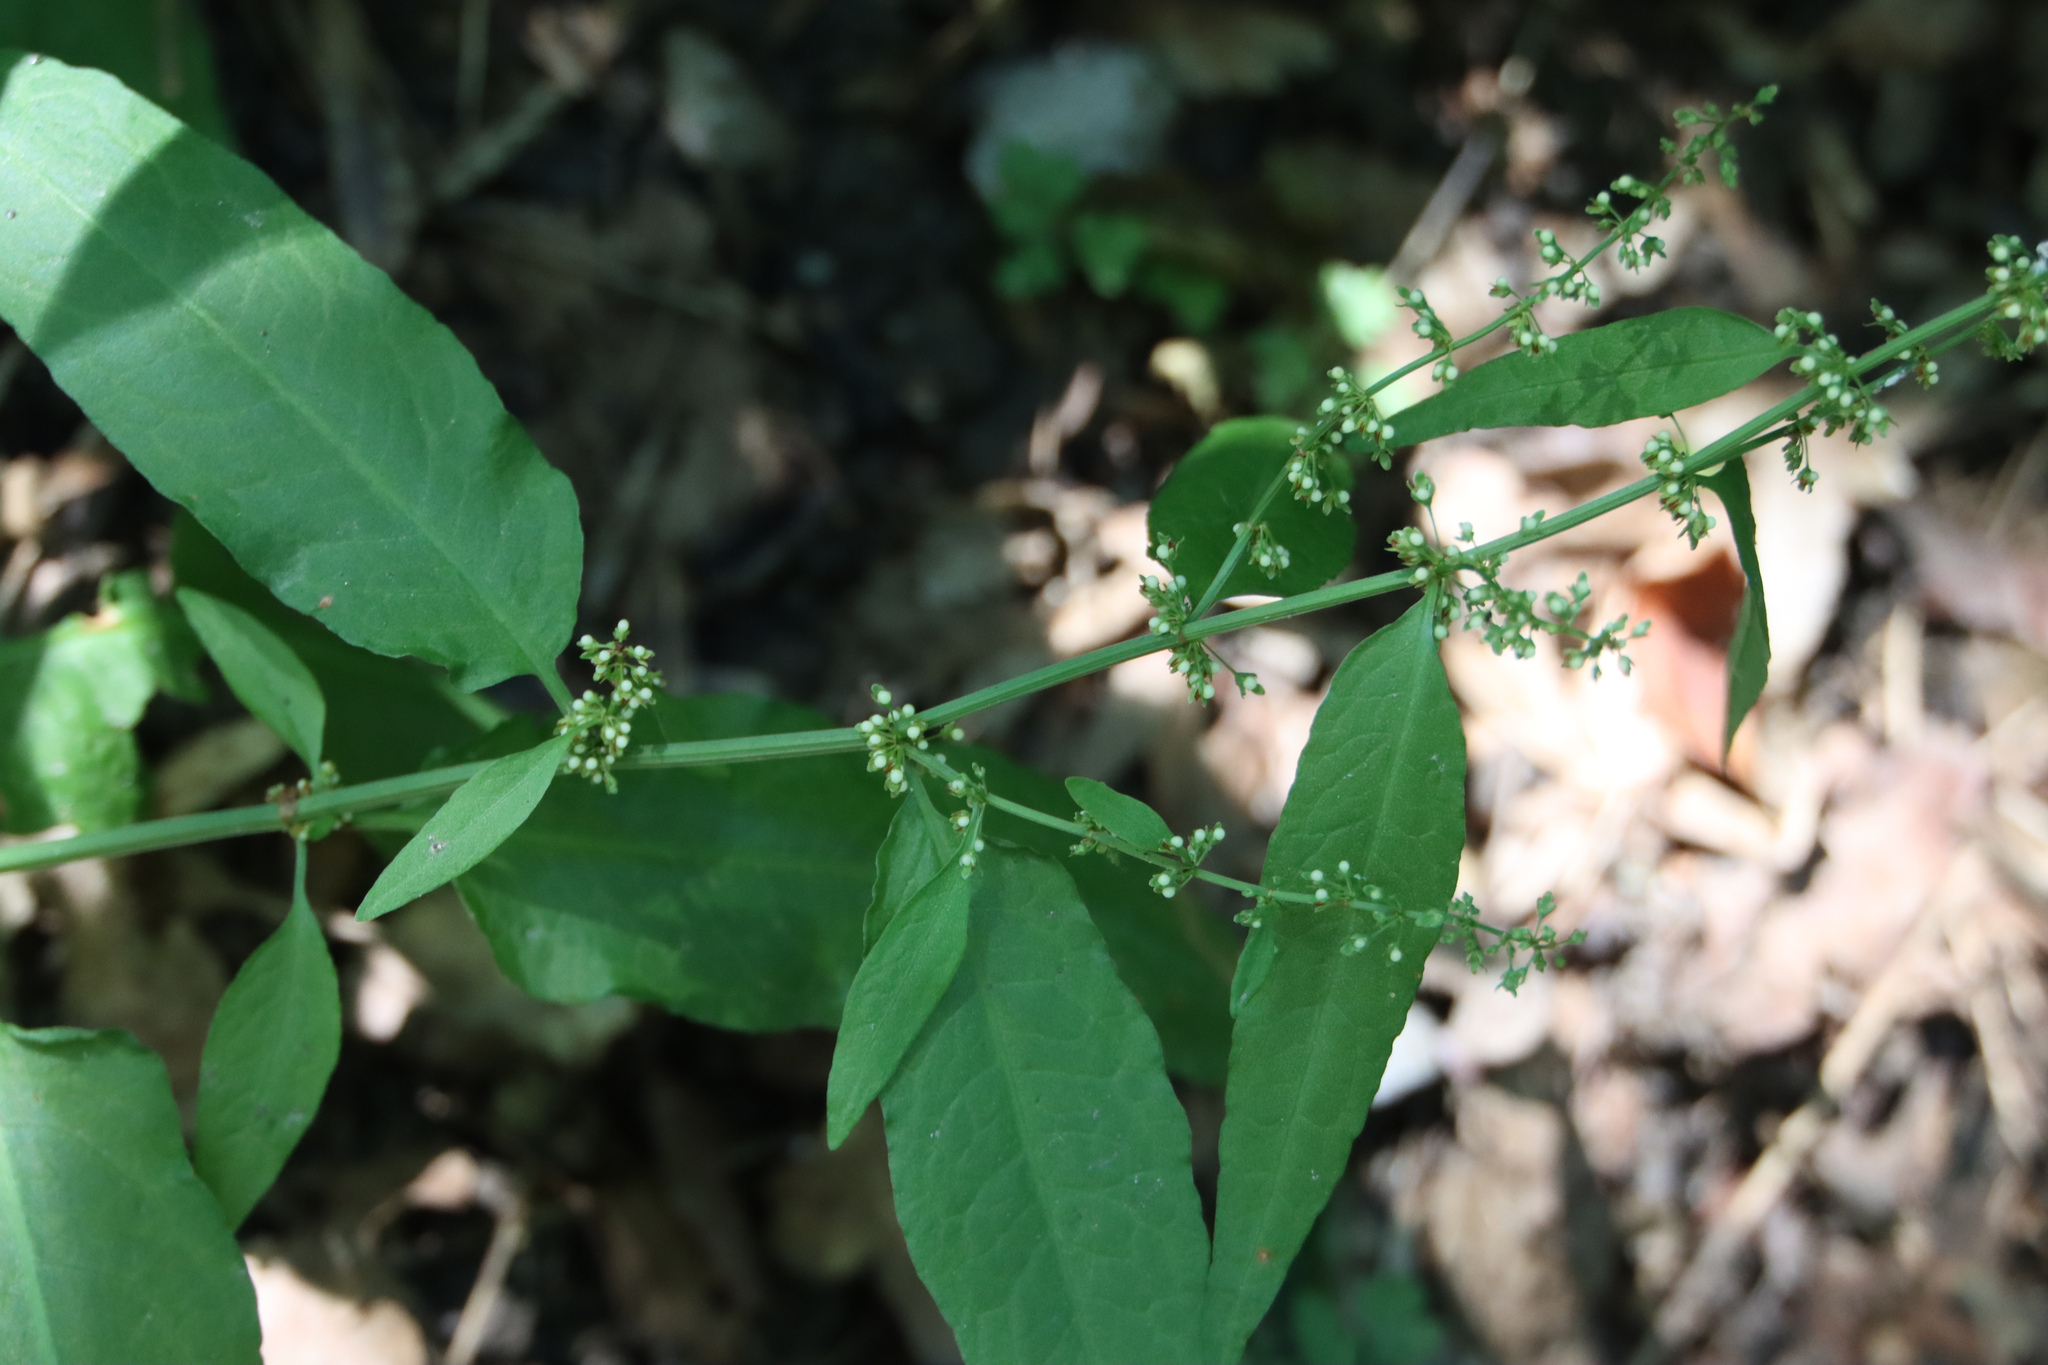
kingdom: Plantae
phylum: Tracheophyta
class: Magnoliopsida
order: Caryophyllales
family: Polygonaceae
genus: Rumex
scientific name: Rumex sanguineus
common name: Wood dock
